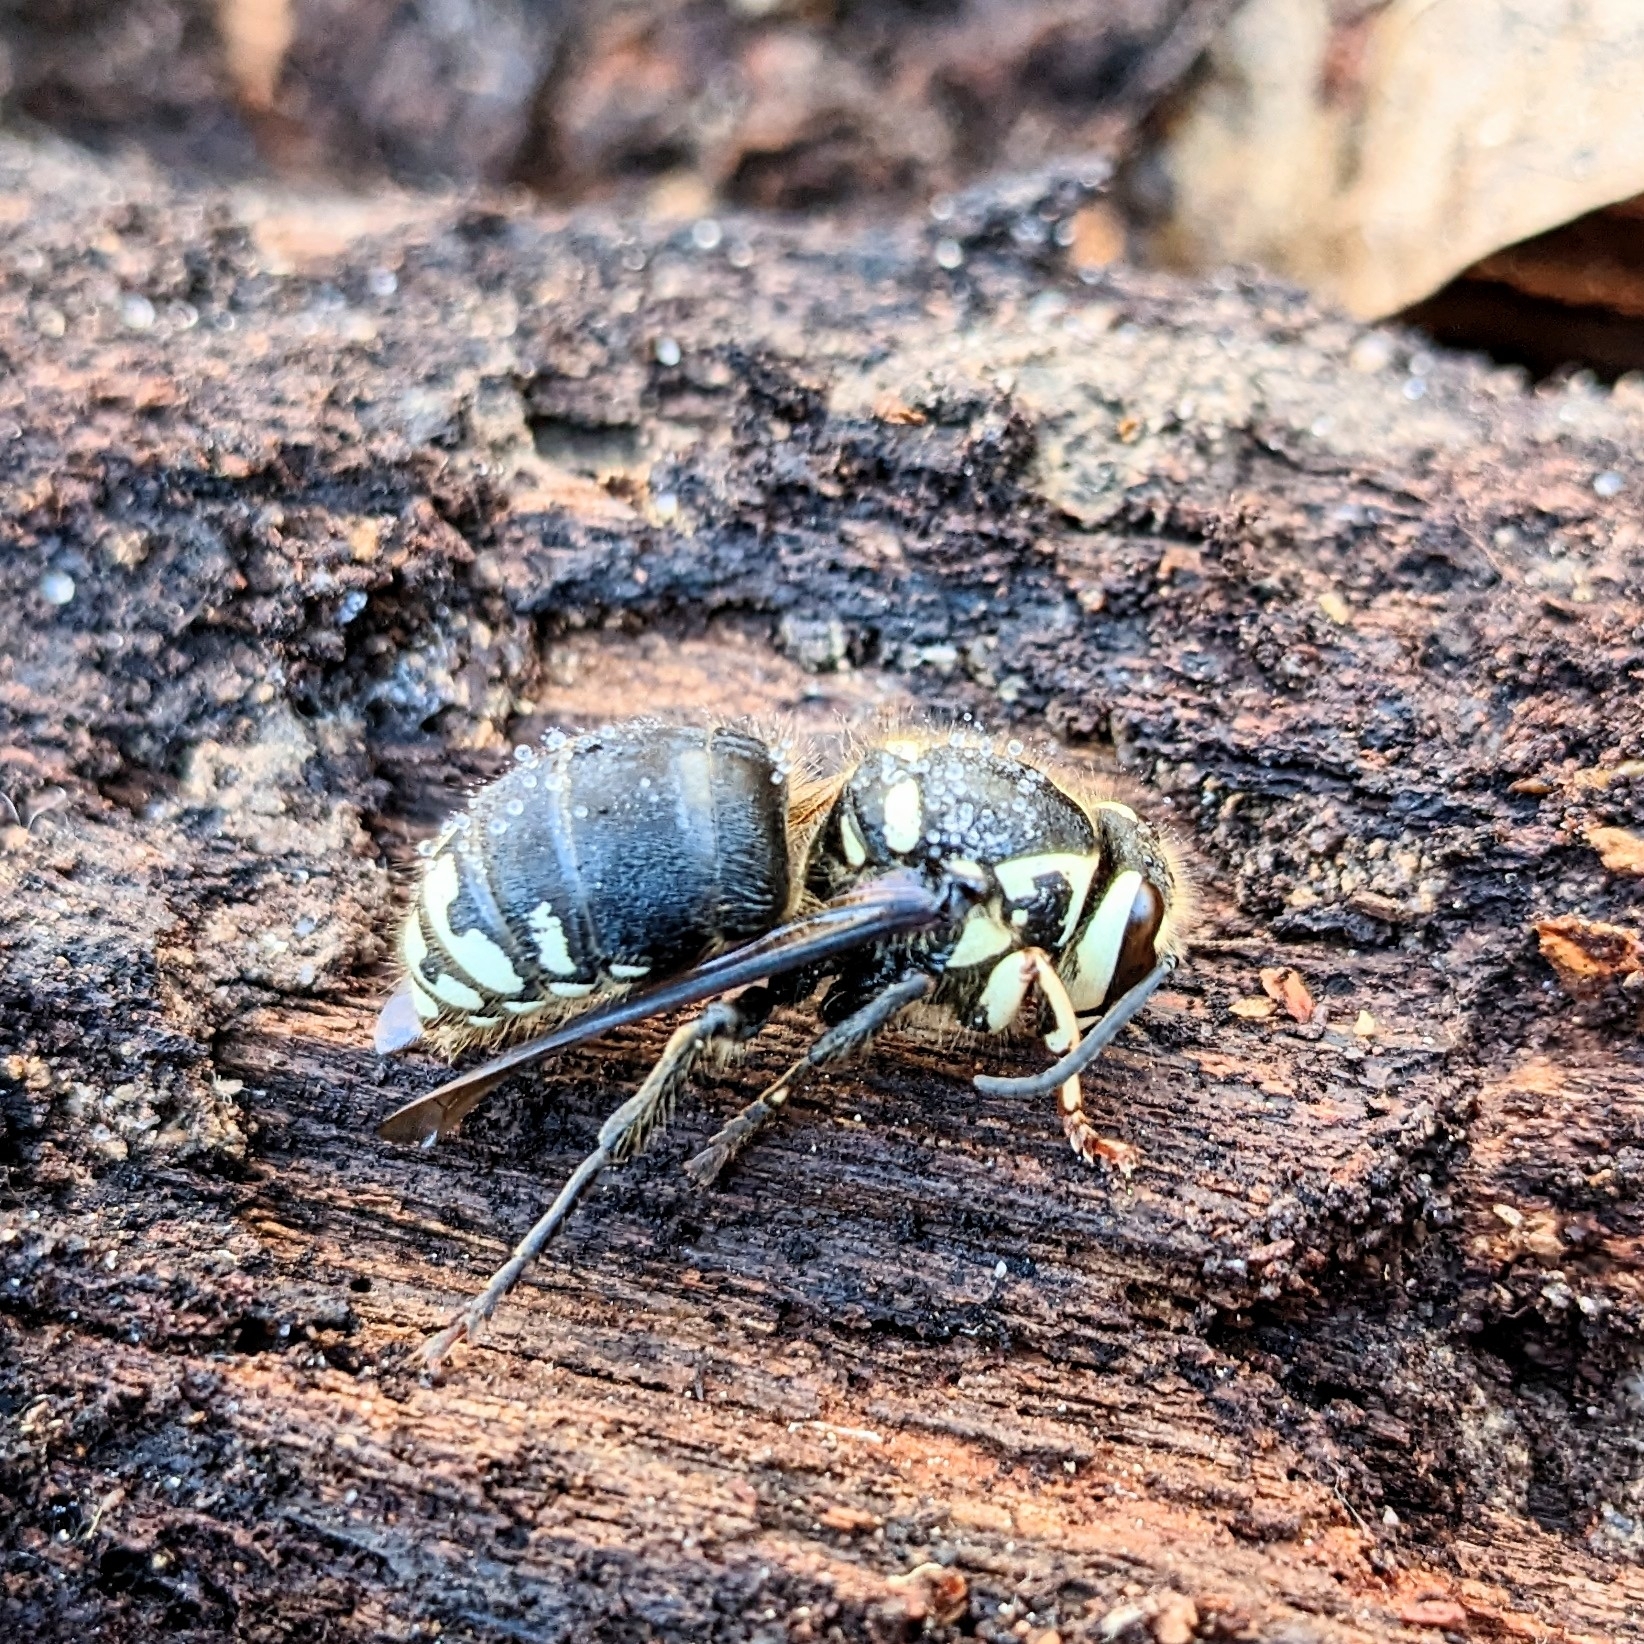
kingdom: Animalia
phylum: Arthropoda
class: Insecta
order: Hymenoptera
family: Vespidae
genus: Dolichovespula
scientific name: Dolichovespula maculata
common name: Bald-faced hornet
